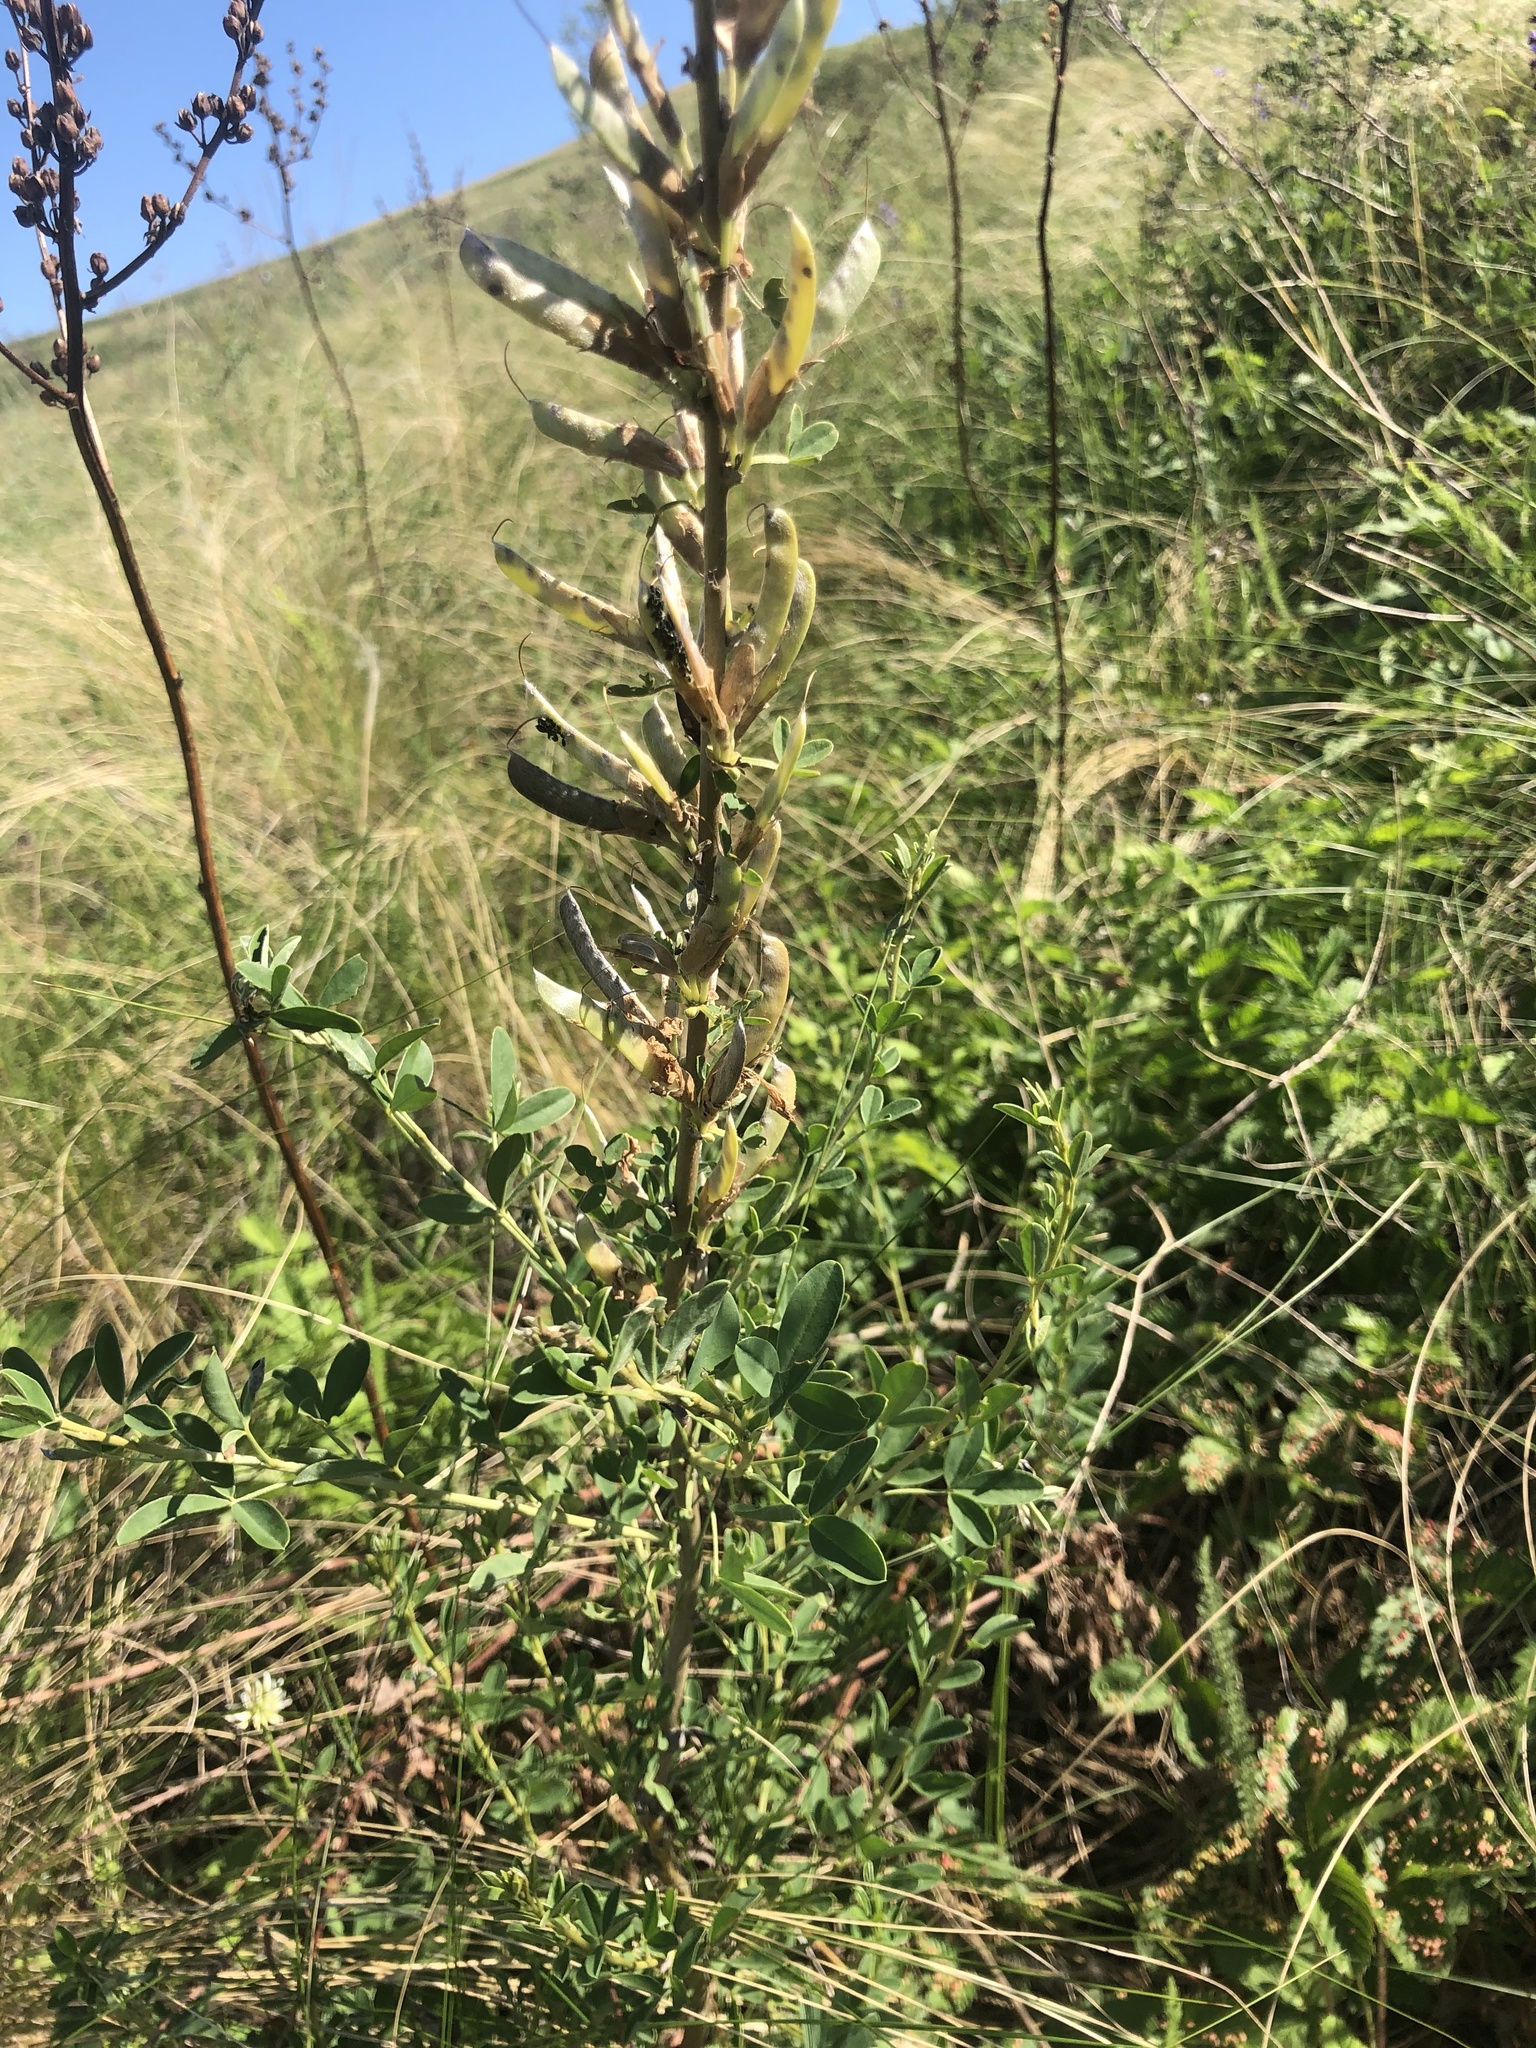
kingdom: Plantae
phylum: Tracheophyta
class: Magnoliopsida
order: Fabales
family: Fabaceae
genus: Chamaecytisus
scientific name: Chamaecytisus ruthenicus
